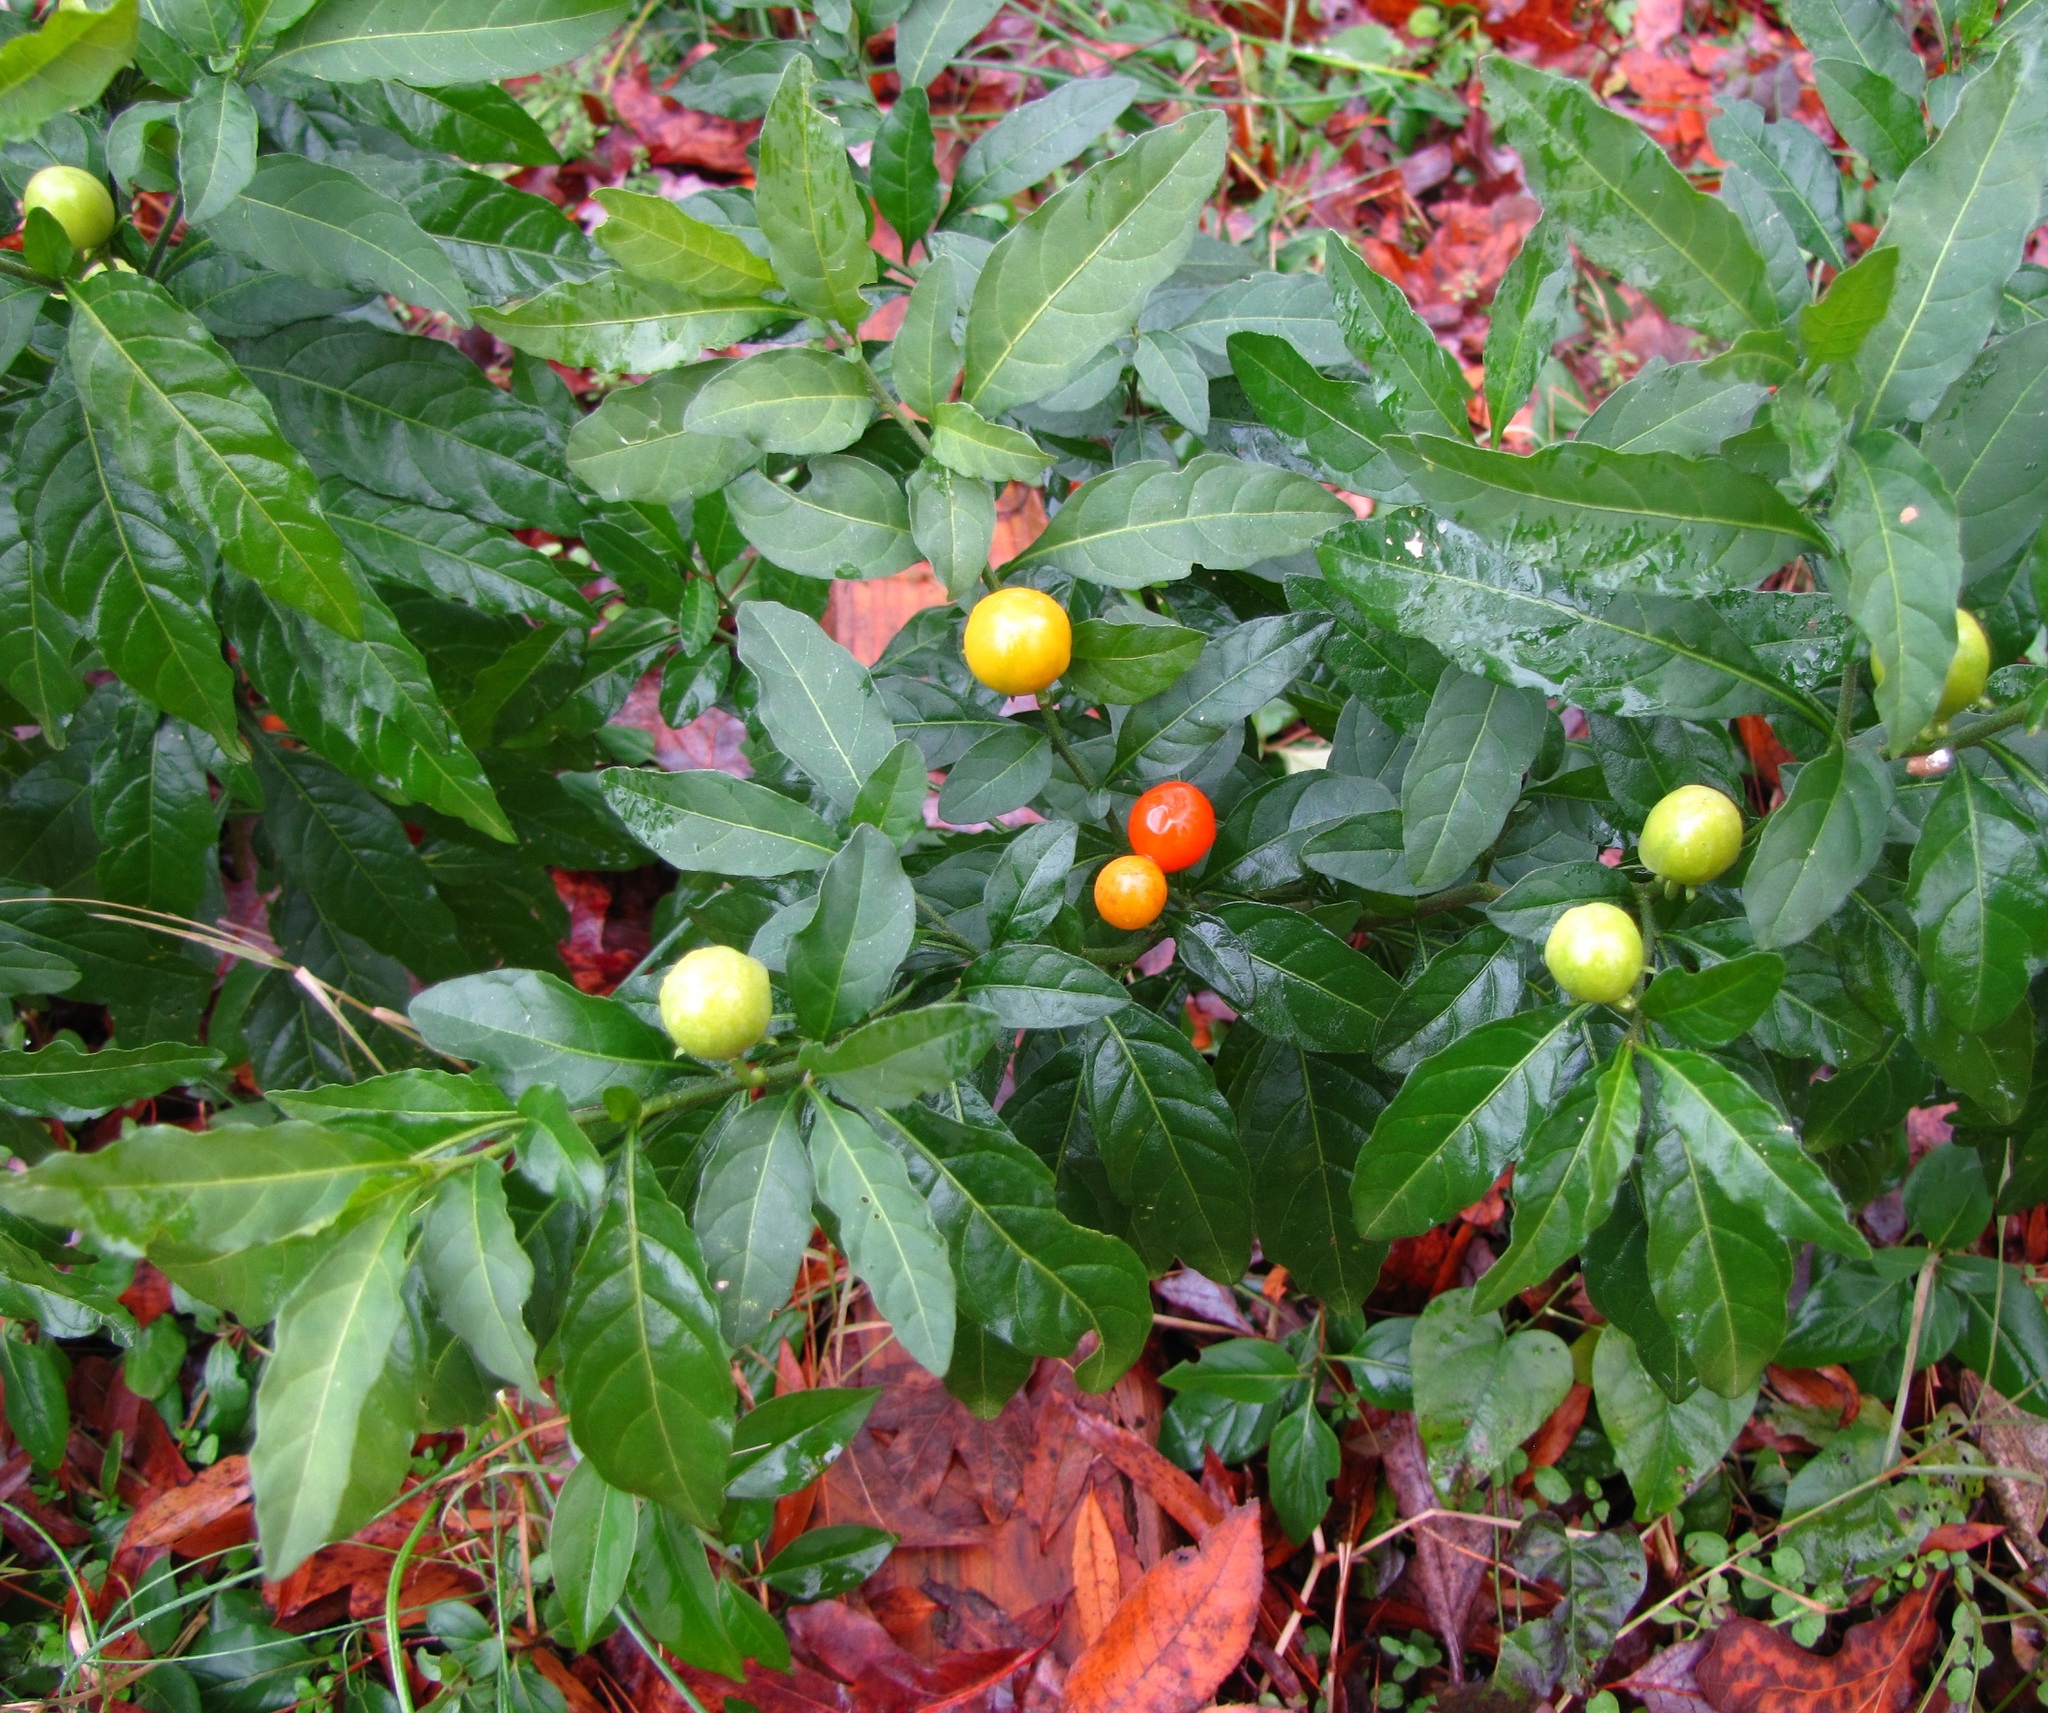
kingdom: Plantae
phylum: Tracheophyta
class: Magnoliopsida
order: Solanales
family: Solanaceae
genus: Solanum
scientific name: Solanum pseudocapsicum
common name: Jerusalem cherry
